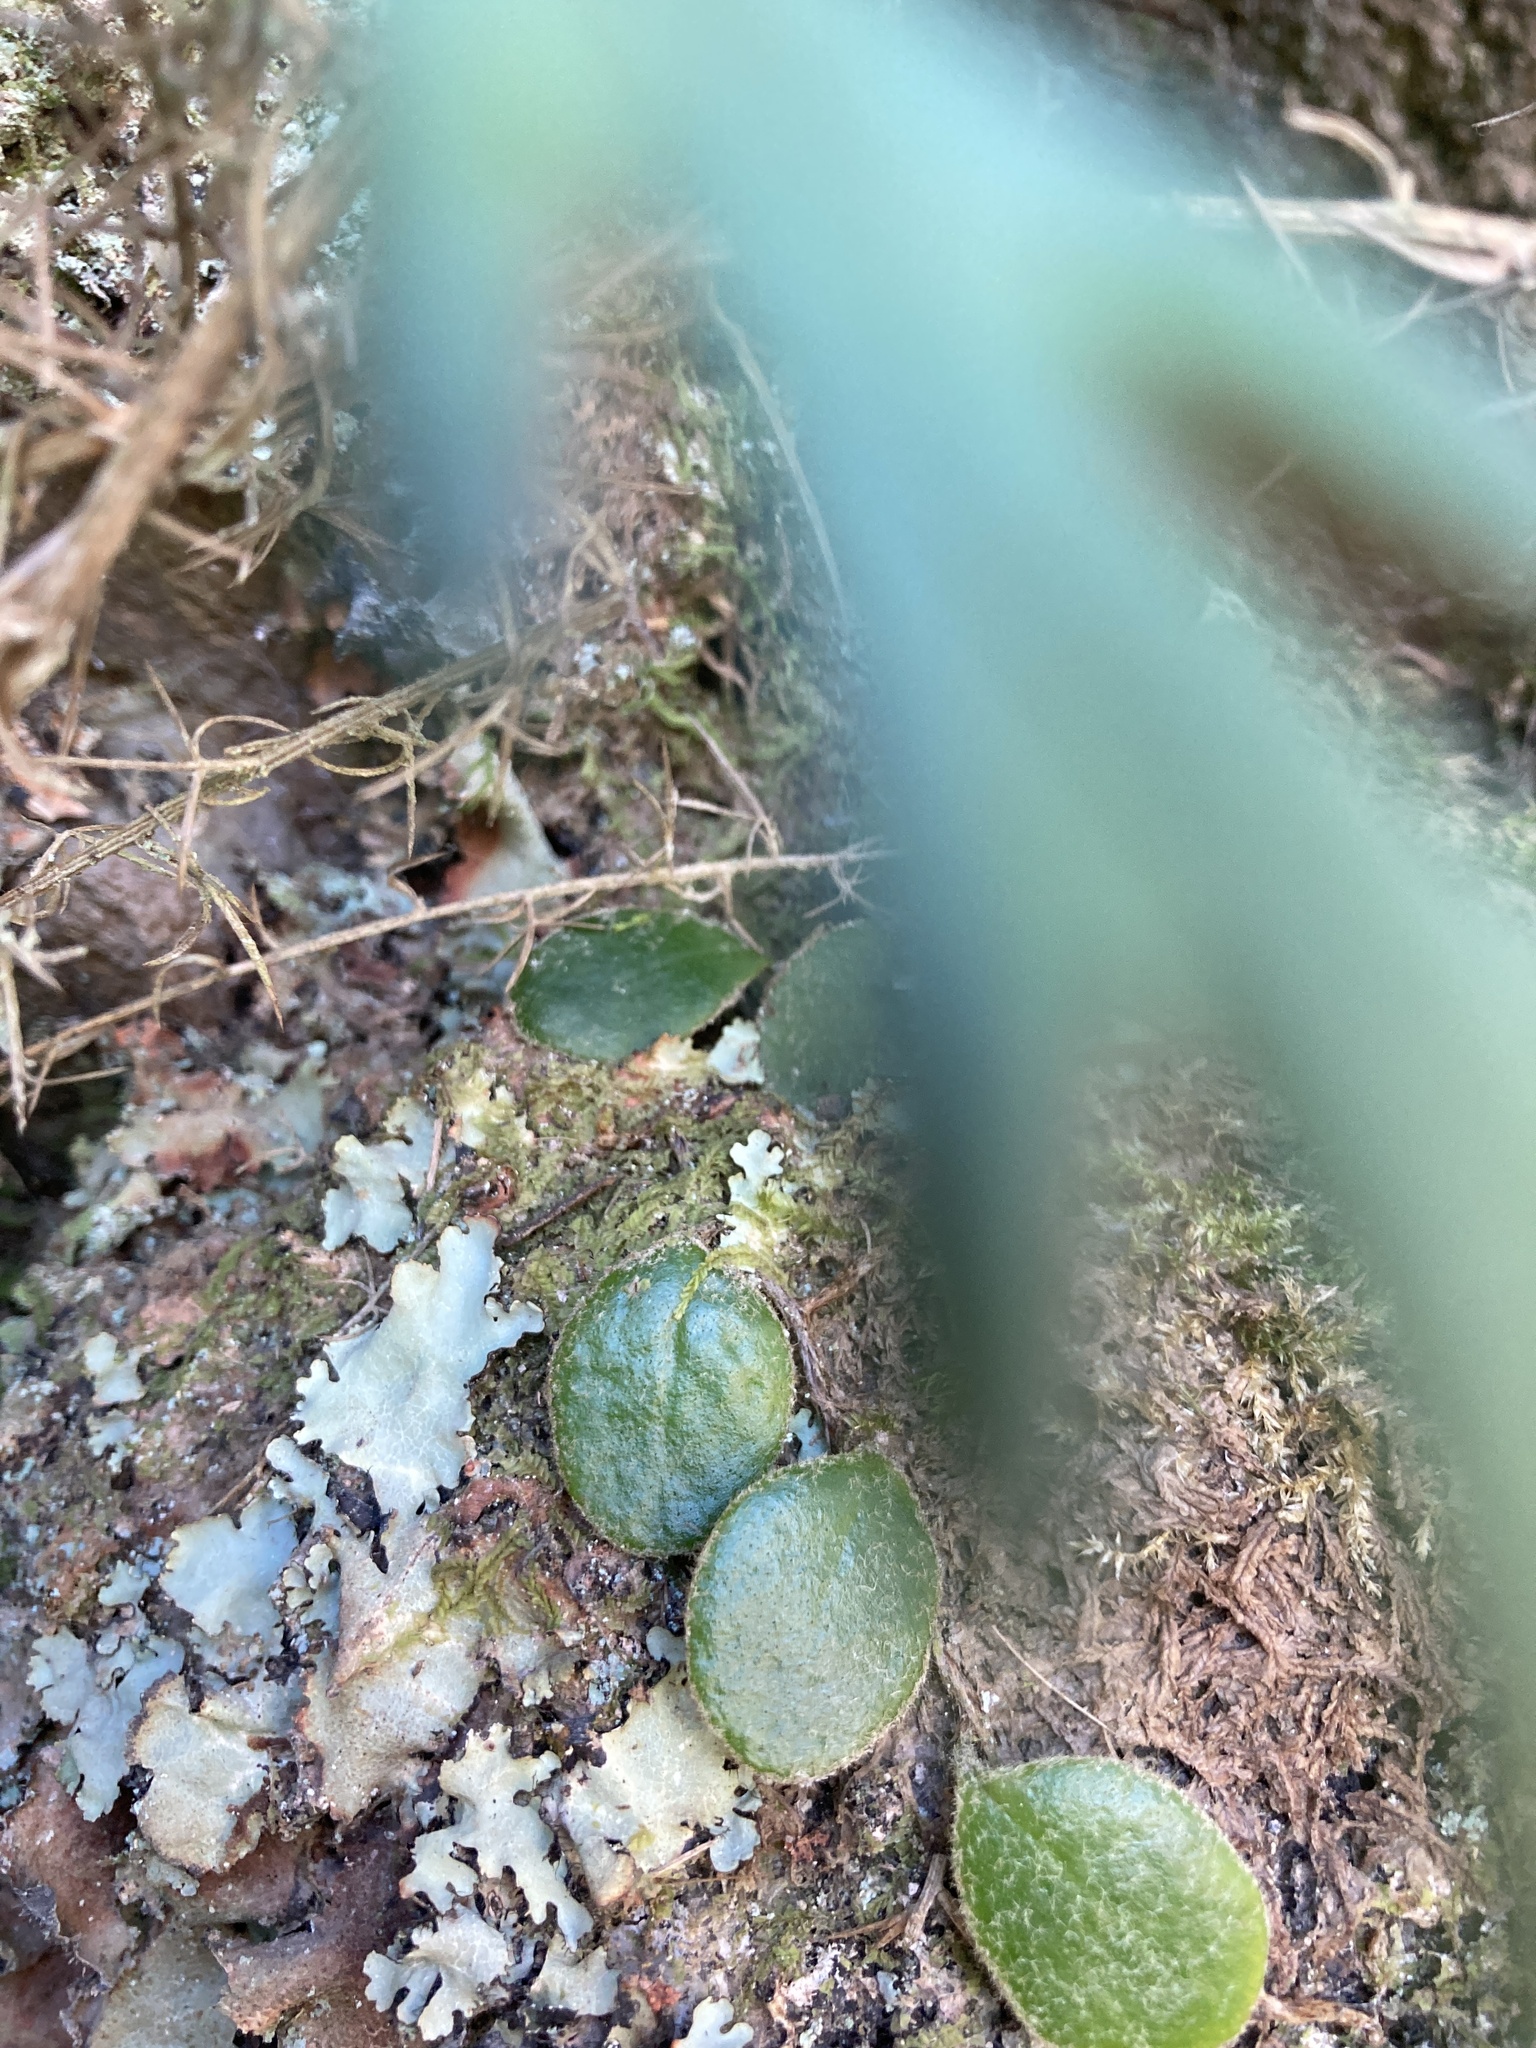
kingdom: Plantae
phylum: Tracheophyta
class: Polypodiopsida
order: Polypodiales
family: Polypodiaceae
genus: Pyrrosia
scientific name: Pyrrosia eleagnifolia
